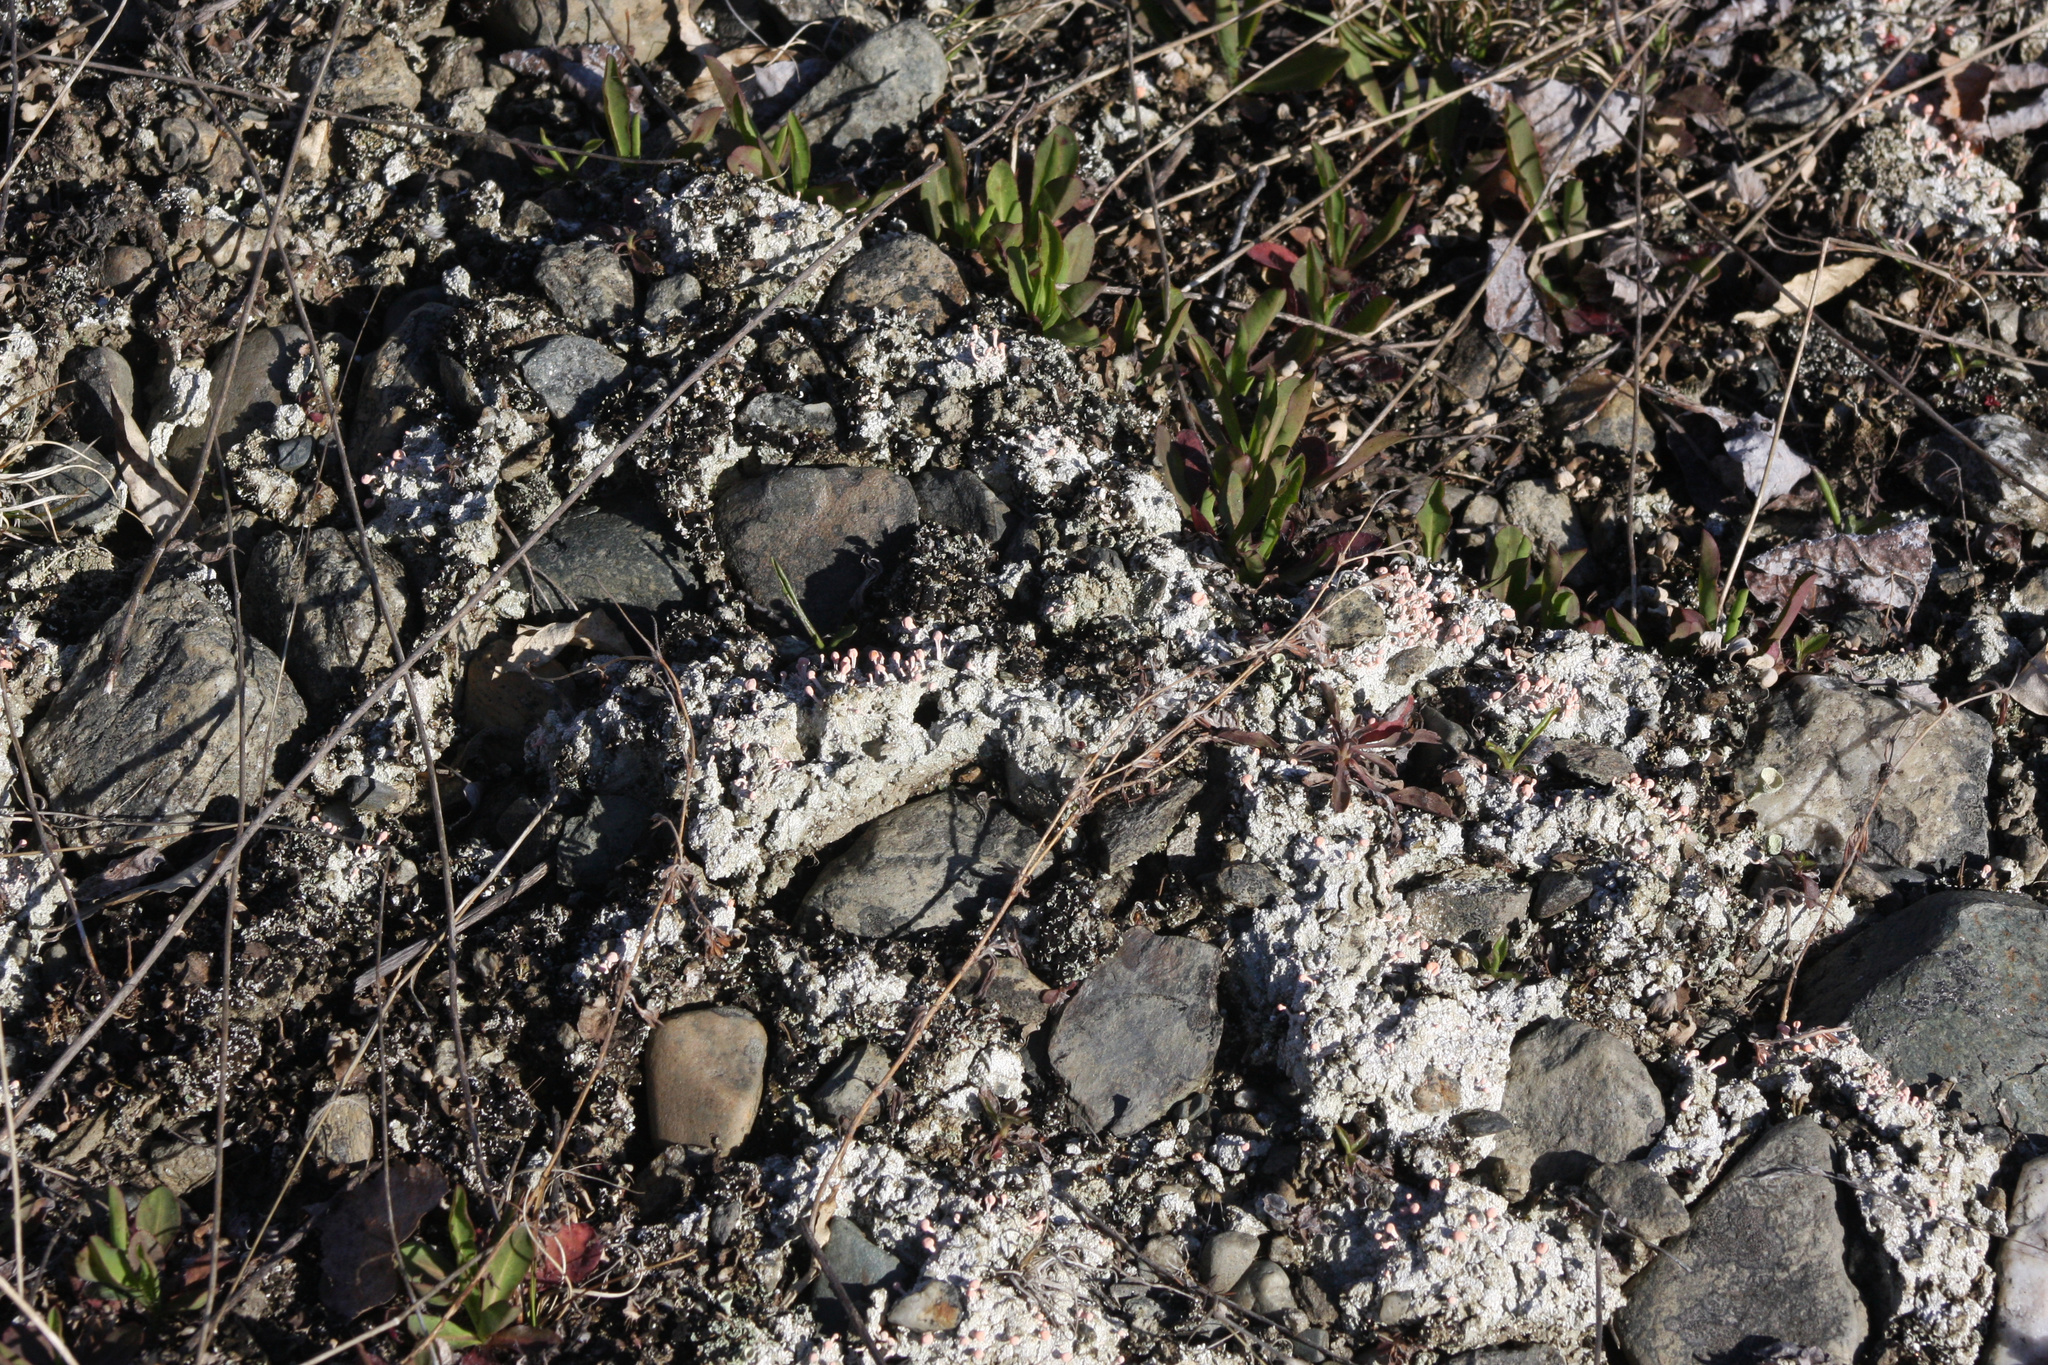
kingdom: Fungi
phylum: Ascomycota
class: Lecanoromycetes
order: Pertusariales
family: Icmadophilaceae
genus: Dibaeis
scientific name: Dibaeis baeomyces
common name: Pink earth lichen
